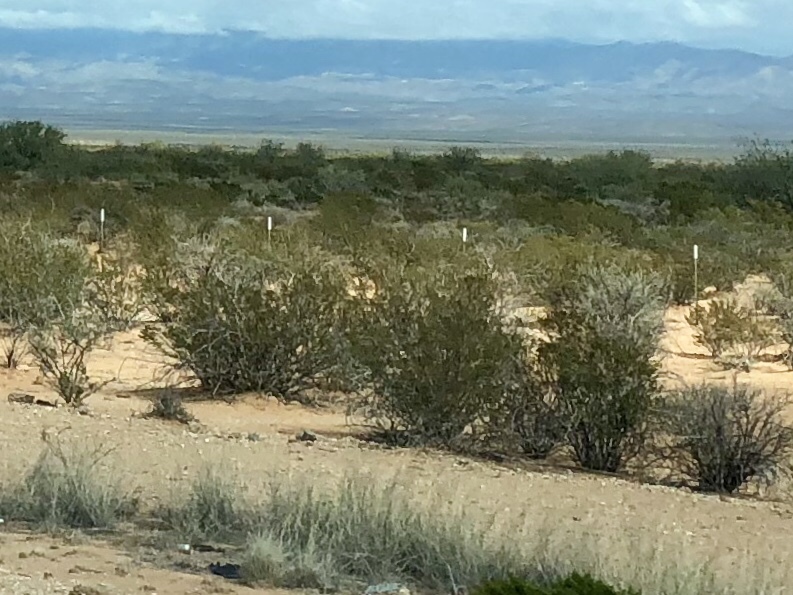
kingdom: Plantae
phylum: Tracheophyta
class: Magnoliopsida
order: Zygophyllales
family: Zygophyllaceae
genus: Larrea
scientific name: Larrea tridentata
